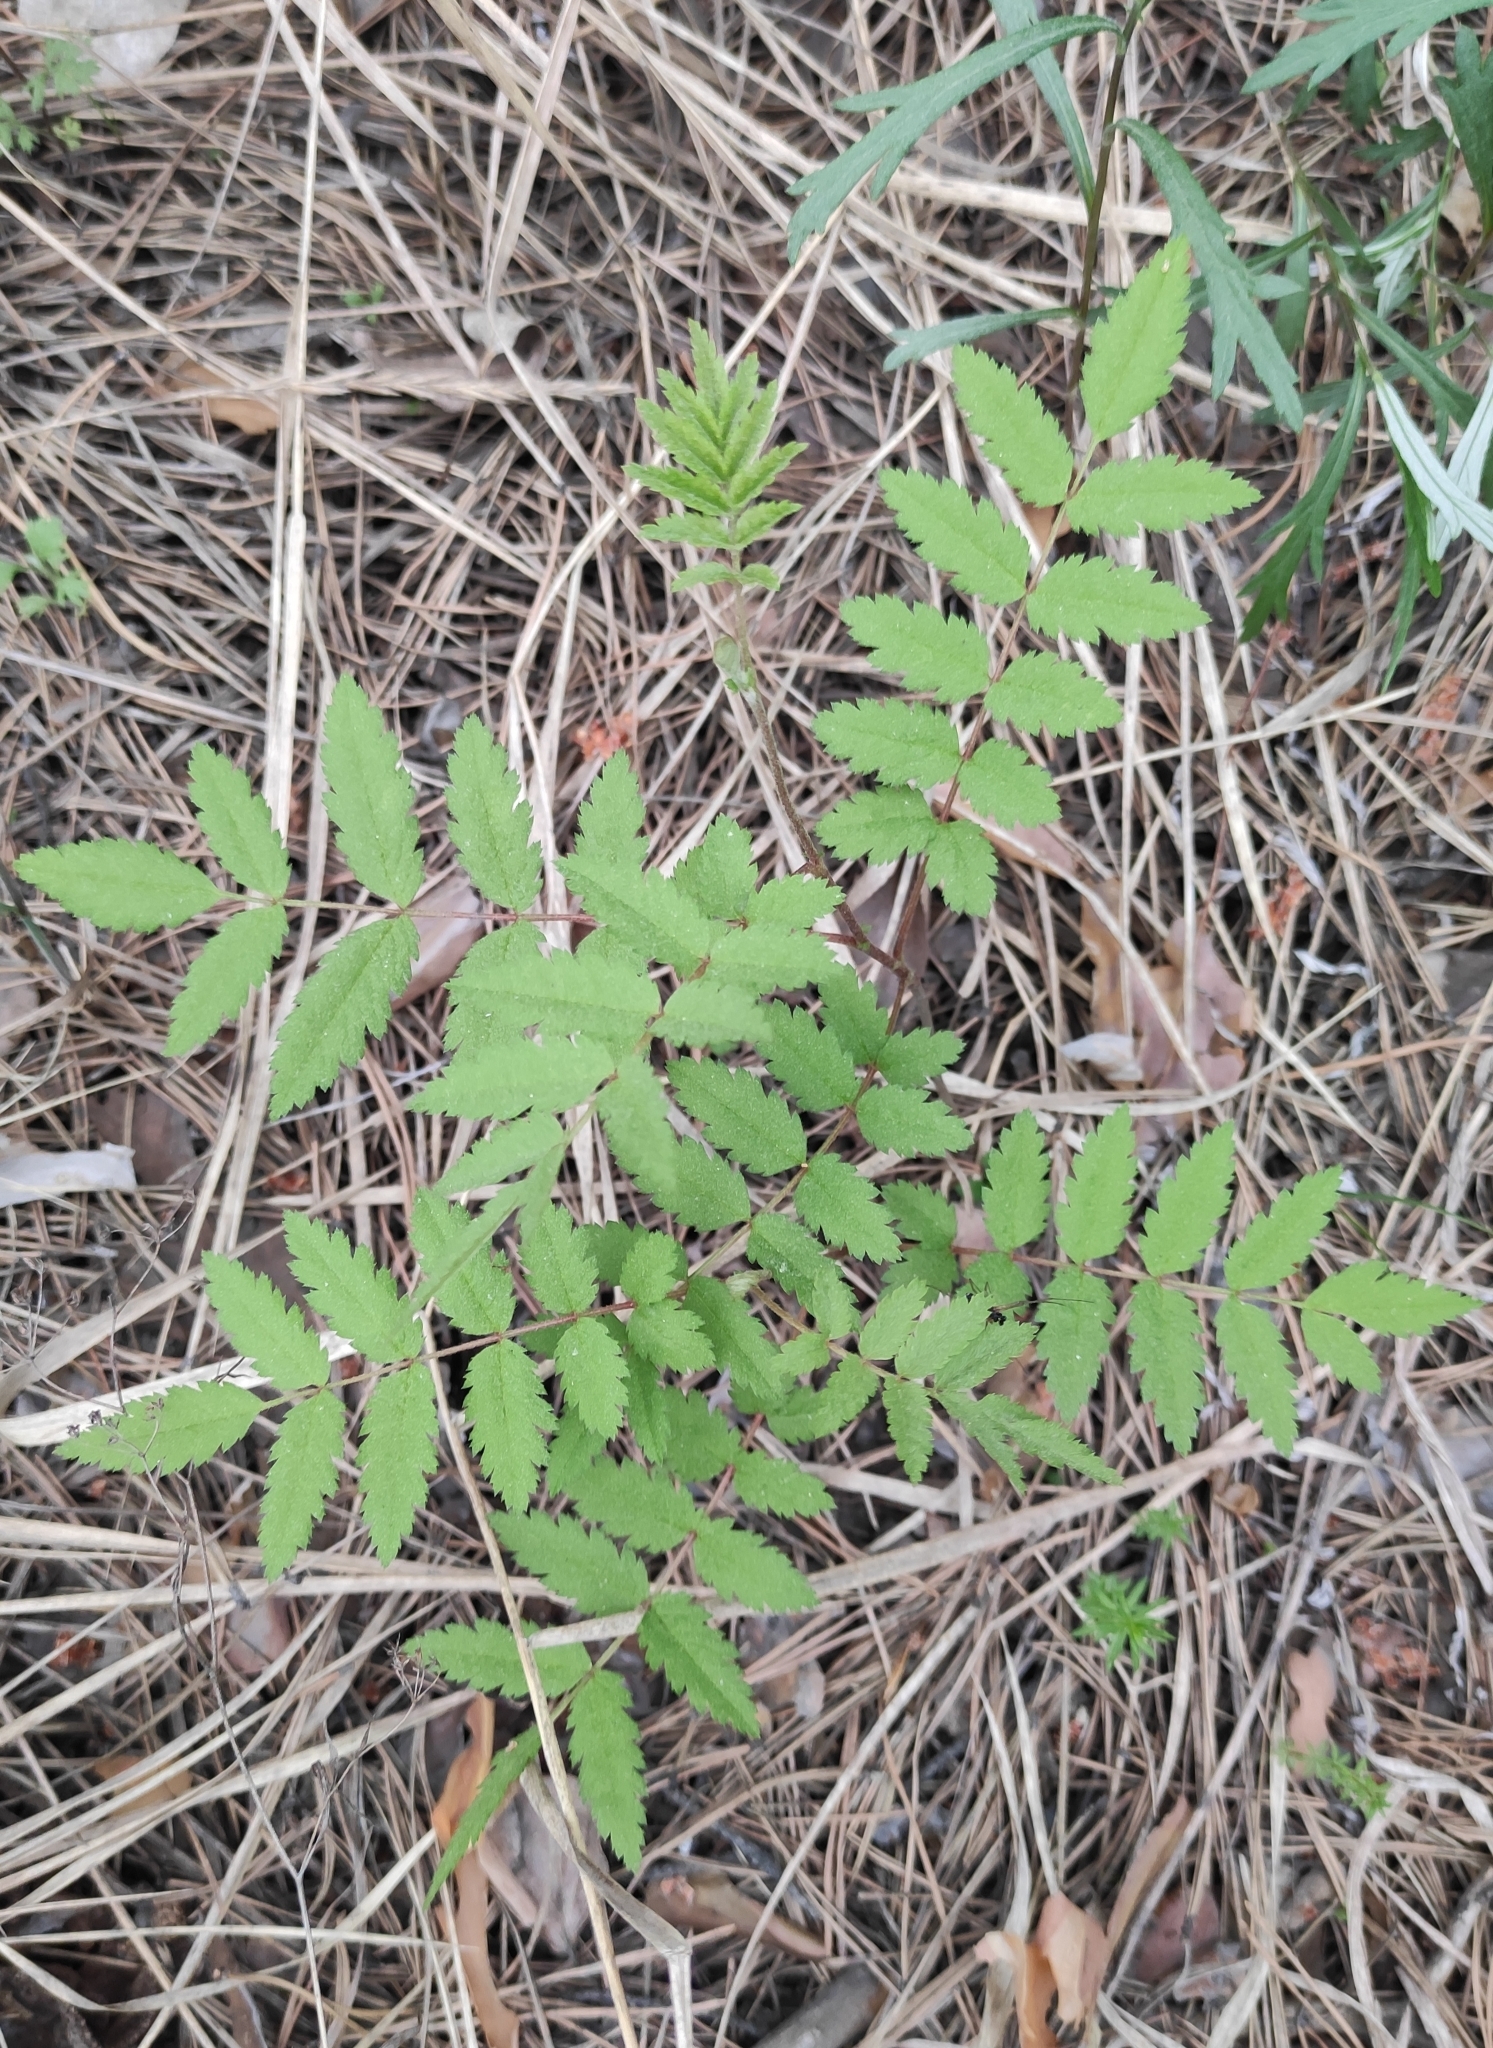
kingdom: Plantae
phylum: Tracheophyta
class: Magnoliopsida
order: Rosales
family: Rosaceae
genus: Sorbus
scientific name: Sorbus aucuparia
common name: Rowan
